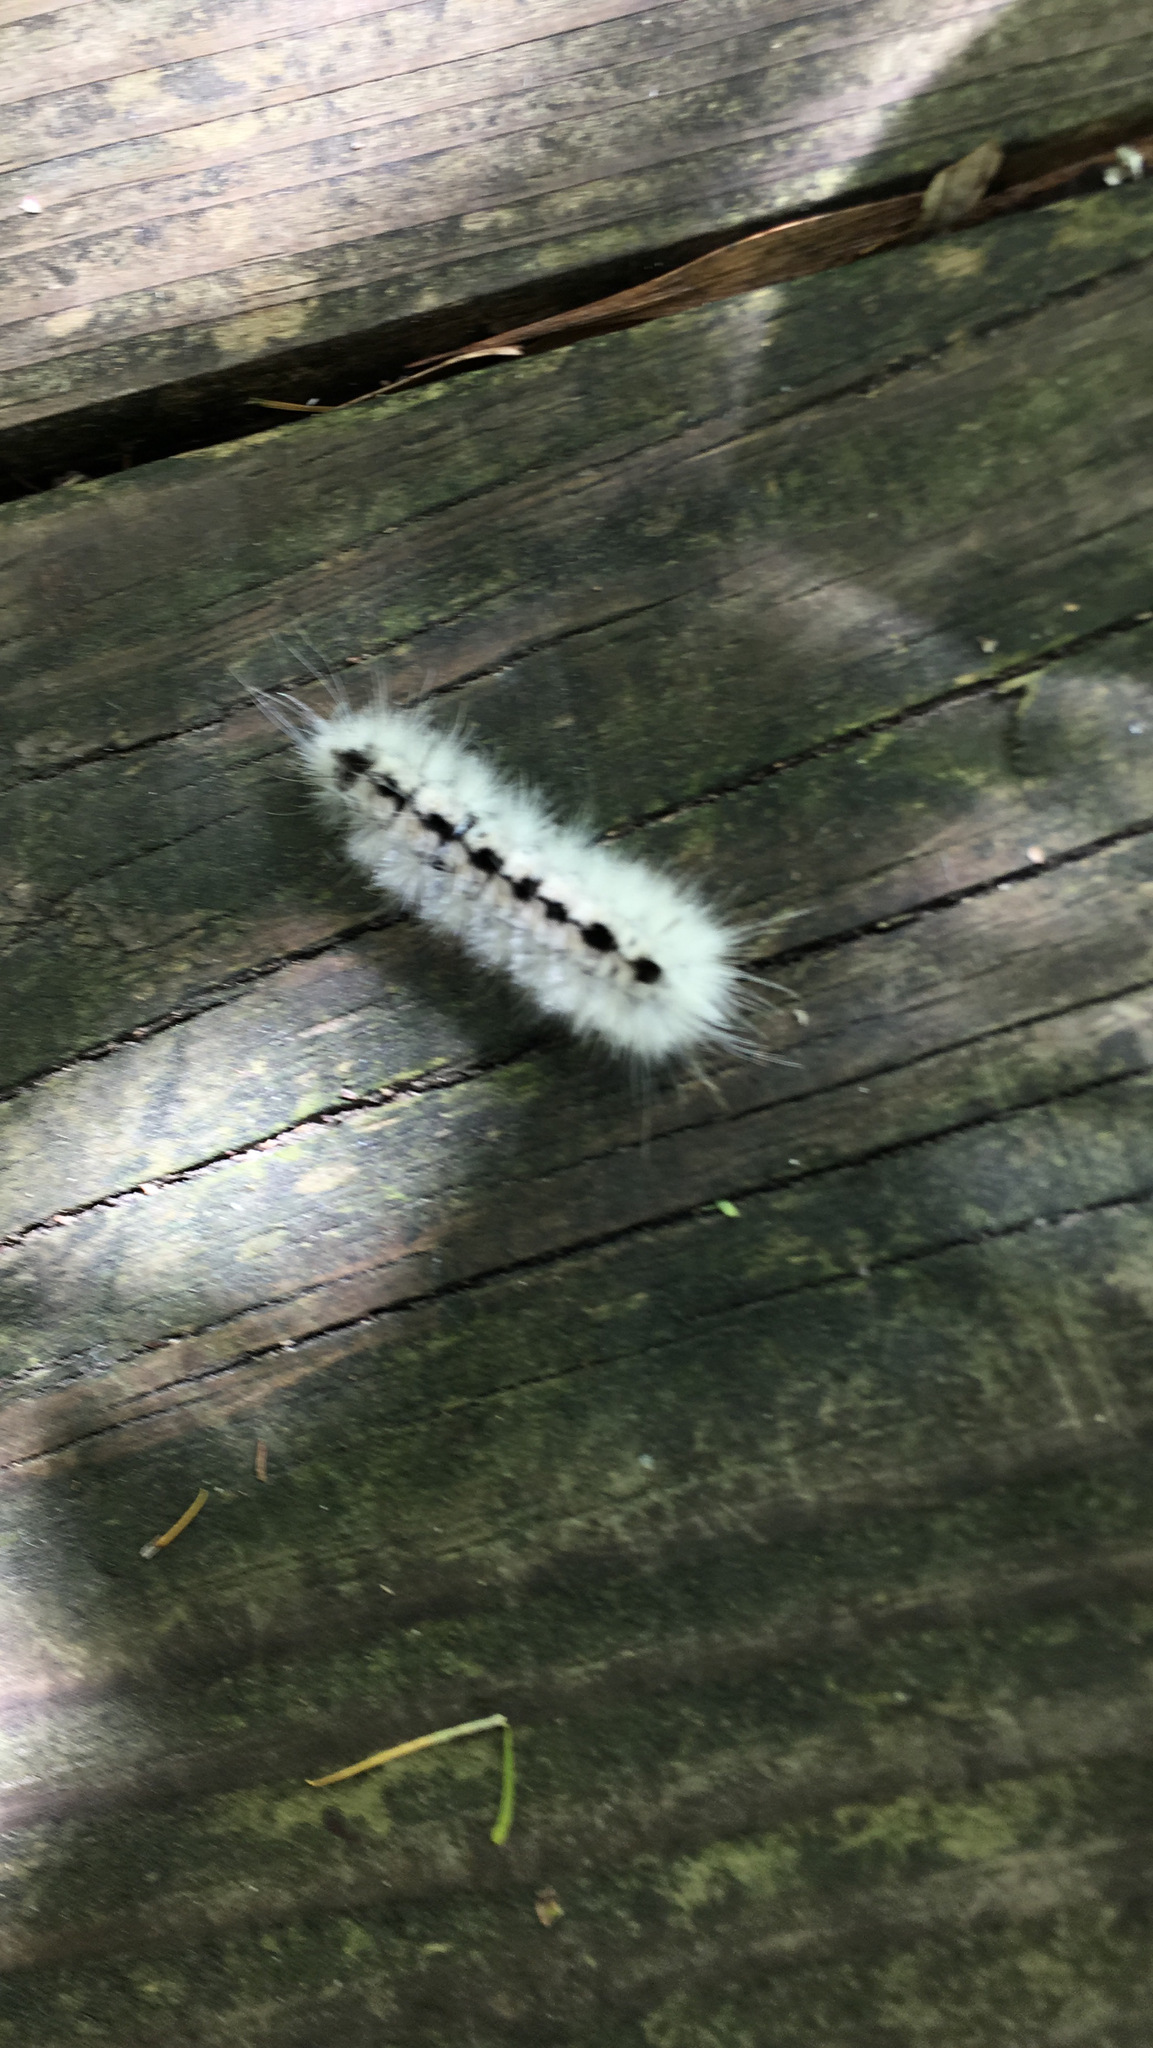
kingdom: Animalia
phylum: Arthropoda
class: Insecta
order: Lepidoptera
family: Erebidae
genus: Lophocampa
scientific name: Lophocampa caryae
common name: Hickory tussock moth
